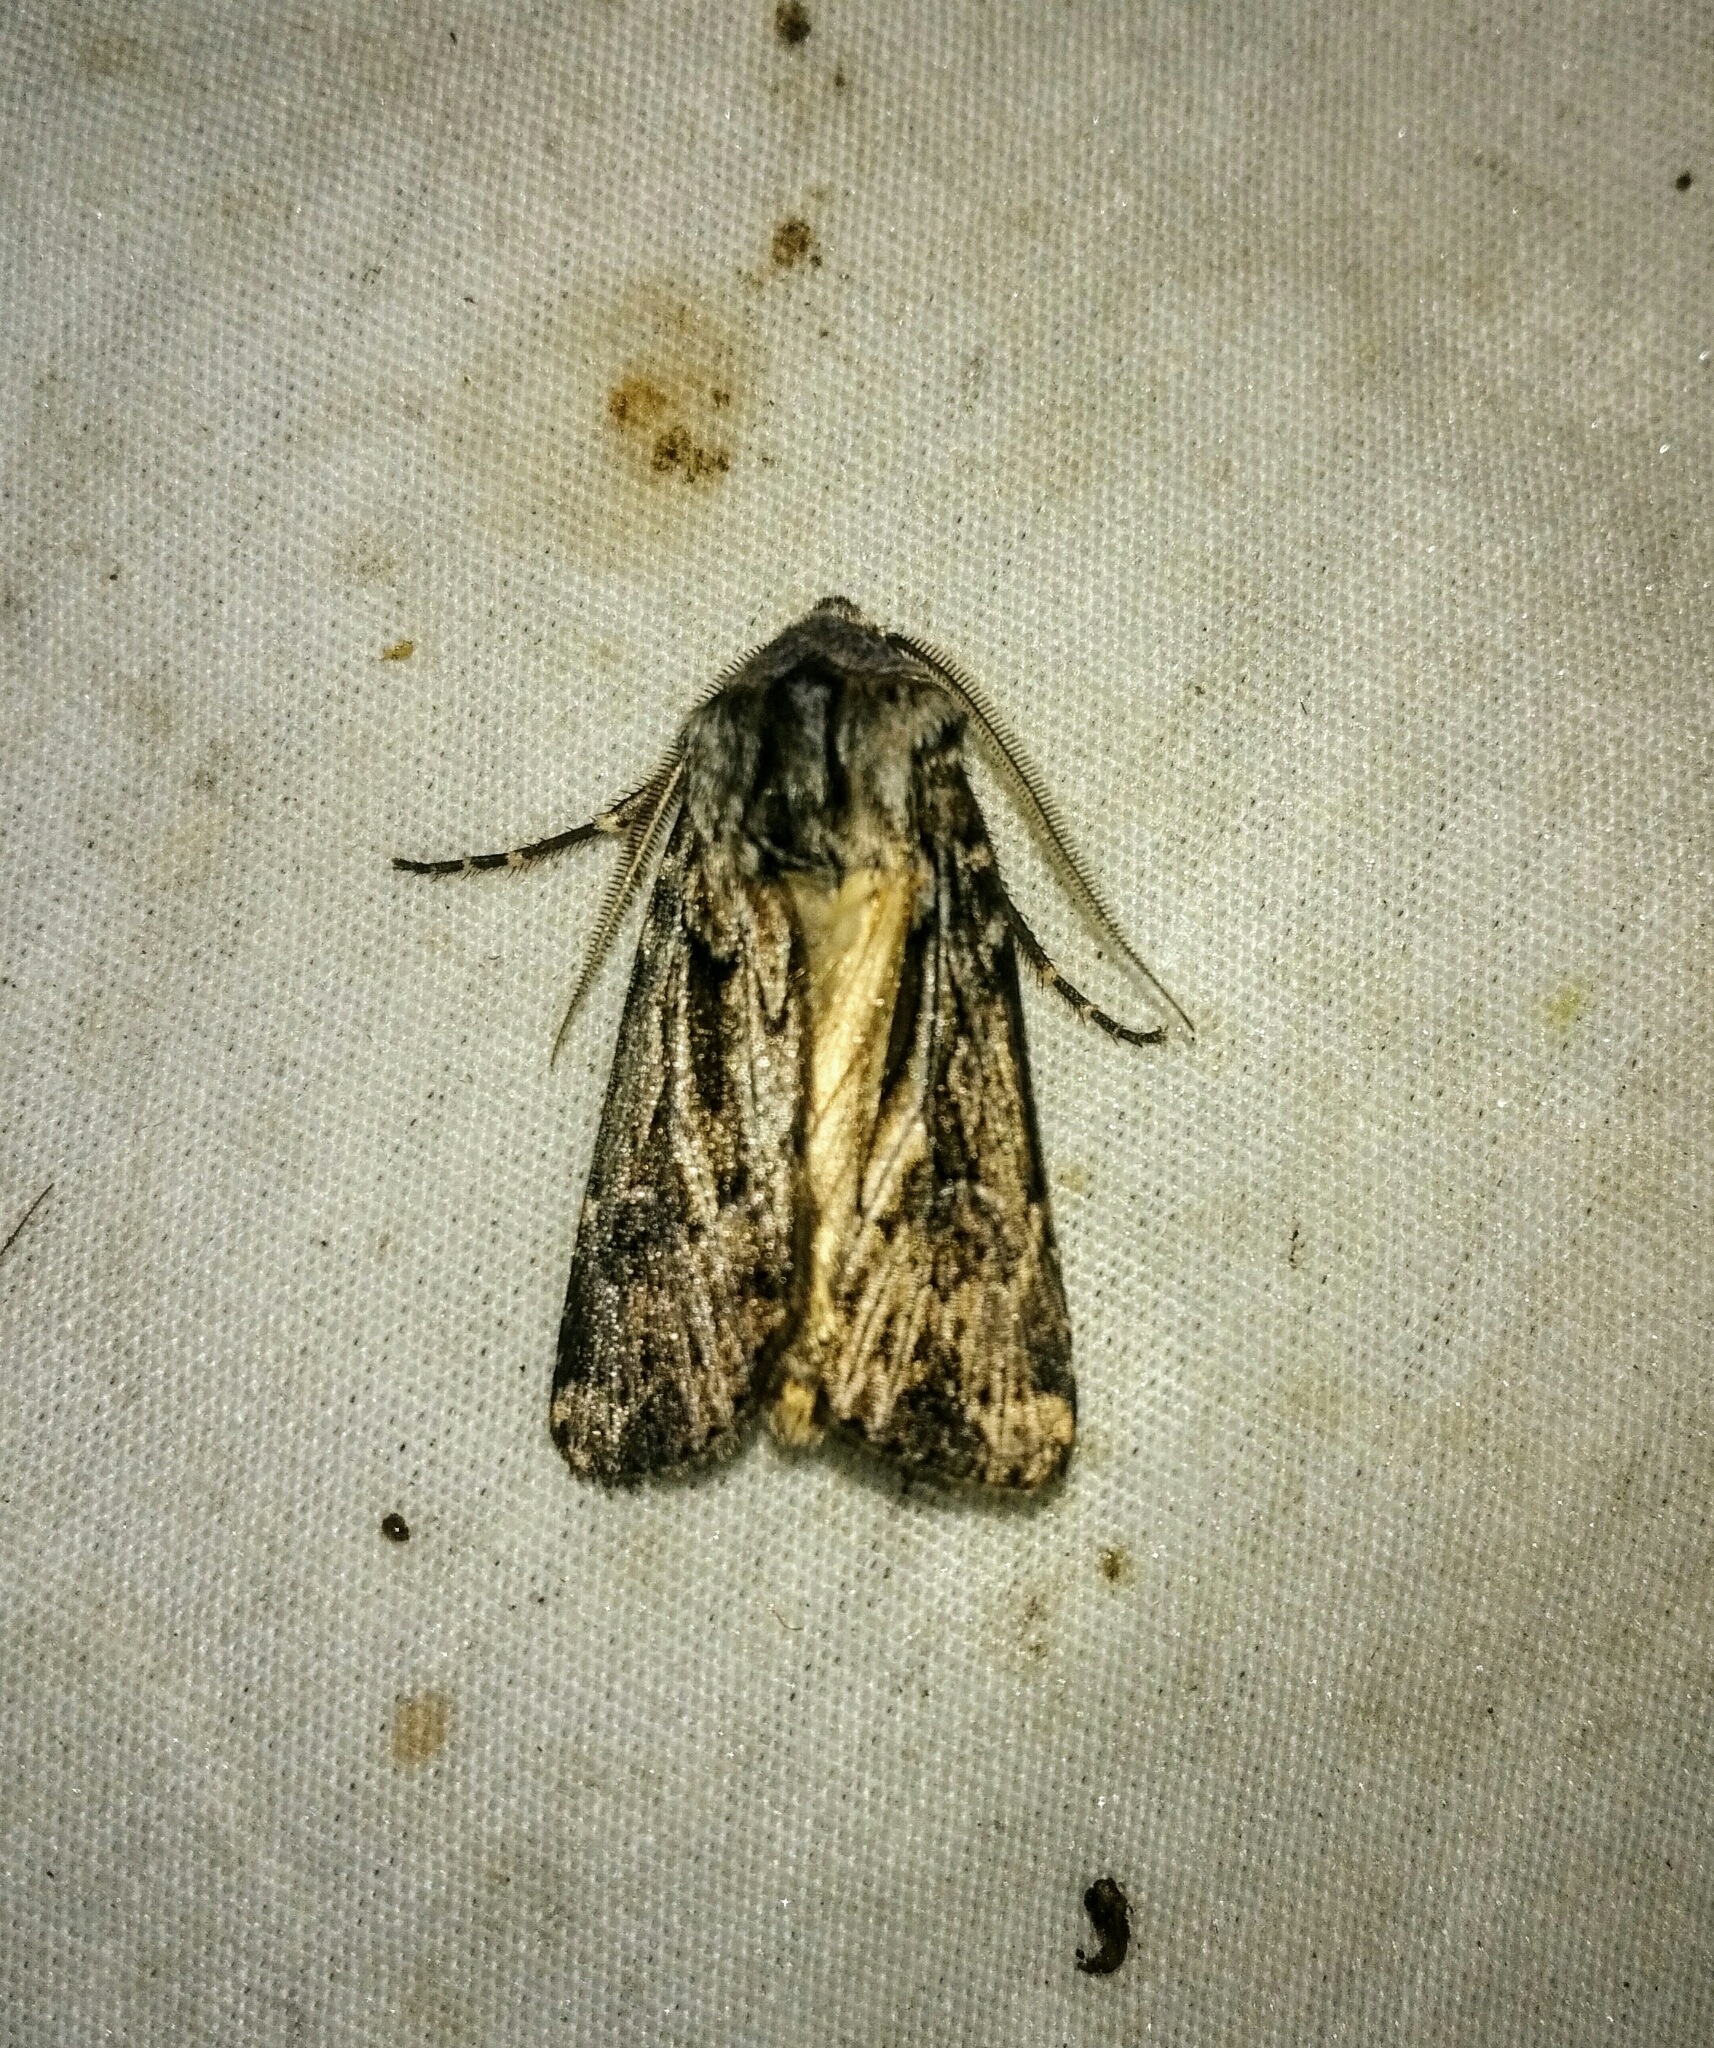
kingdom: Animalia
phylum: Arthropoda
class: Insecta
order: Lepidoptera
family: Noctuidae
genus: Agrotis
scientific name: Agrotis robustior
